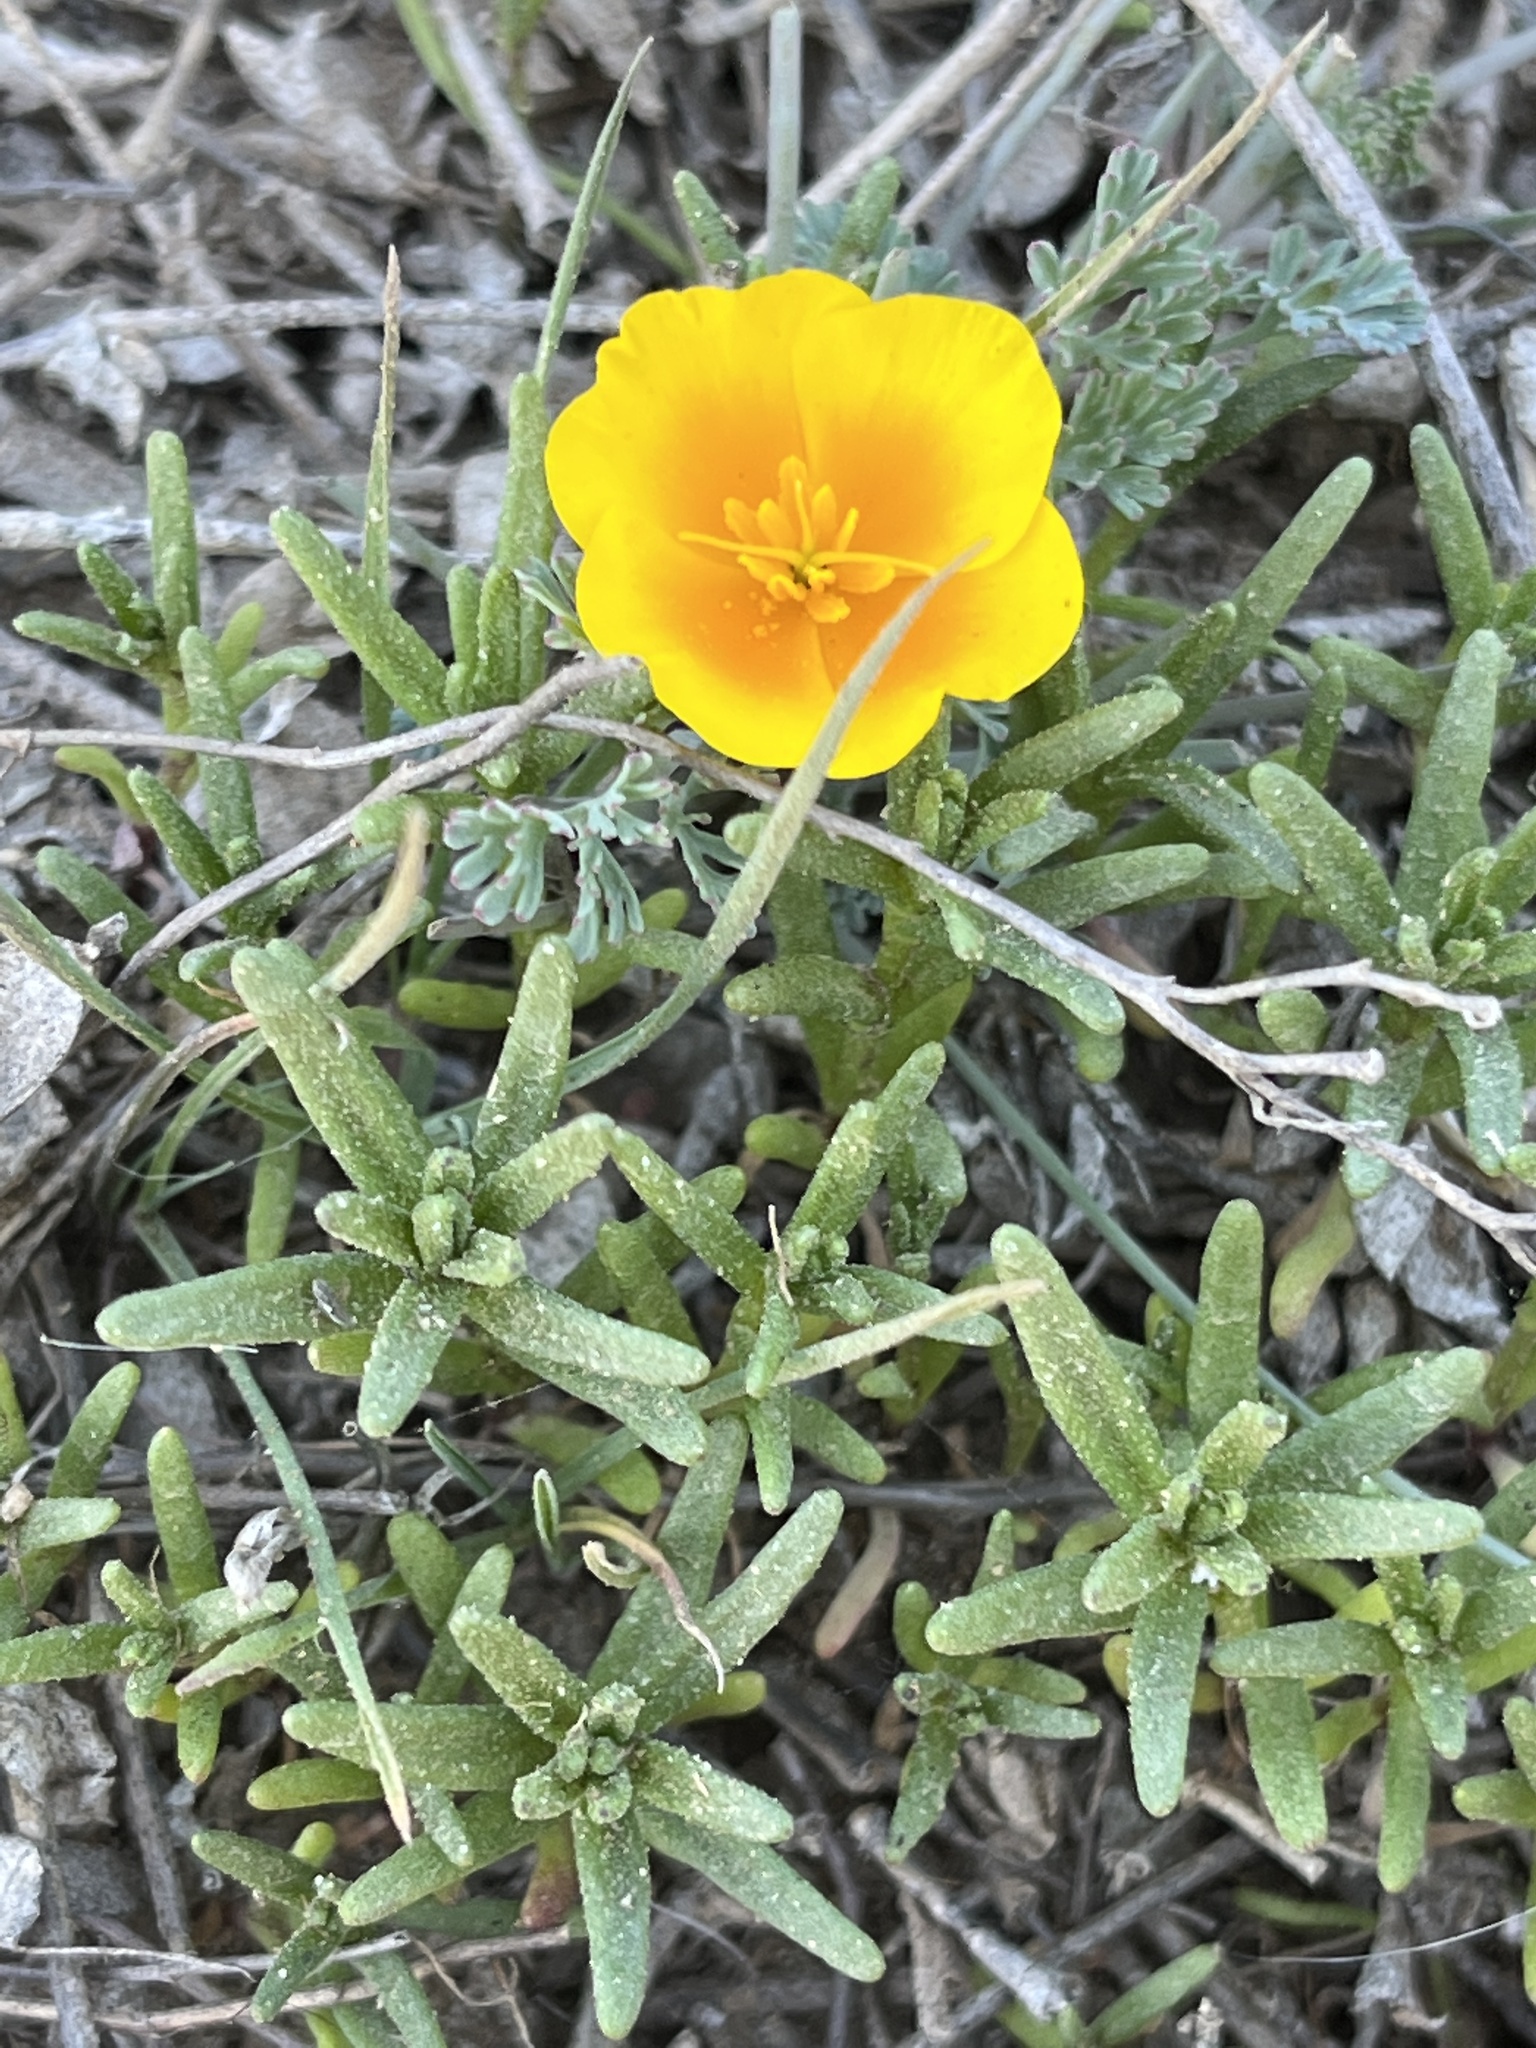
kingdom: Plantae
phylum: Tracheophyta
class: Magnoliopsida
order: Ranunculales
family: Papaveraceae
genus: Eschscholzia
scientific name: Eschscholzia californica
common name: California poppy
